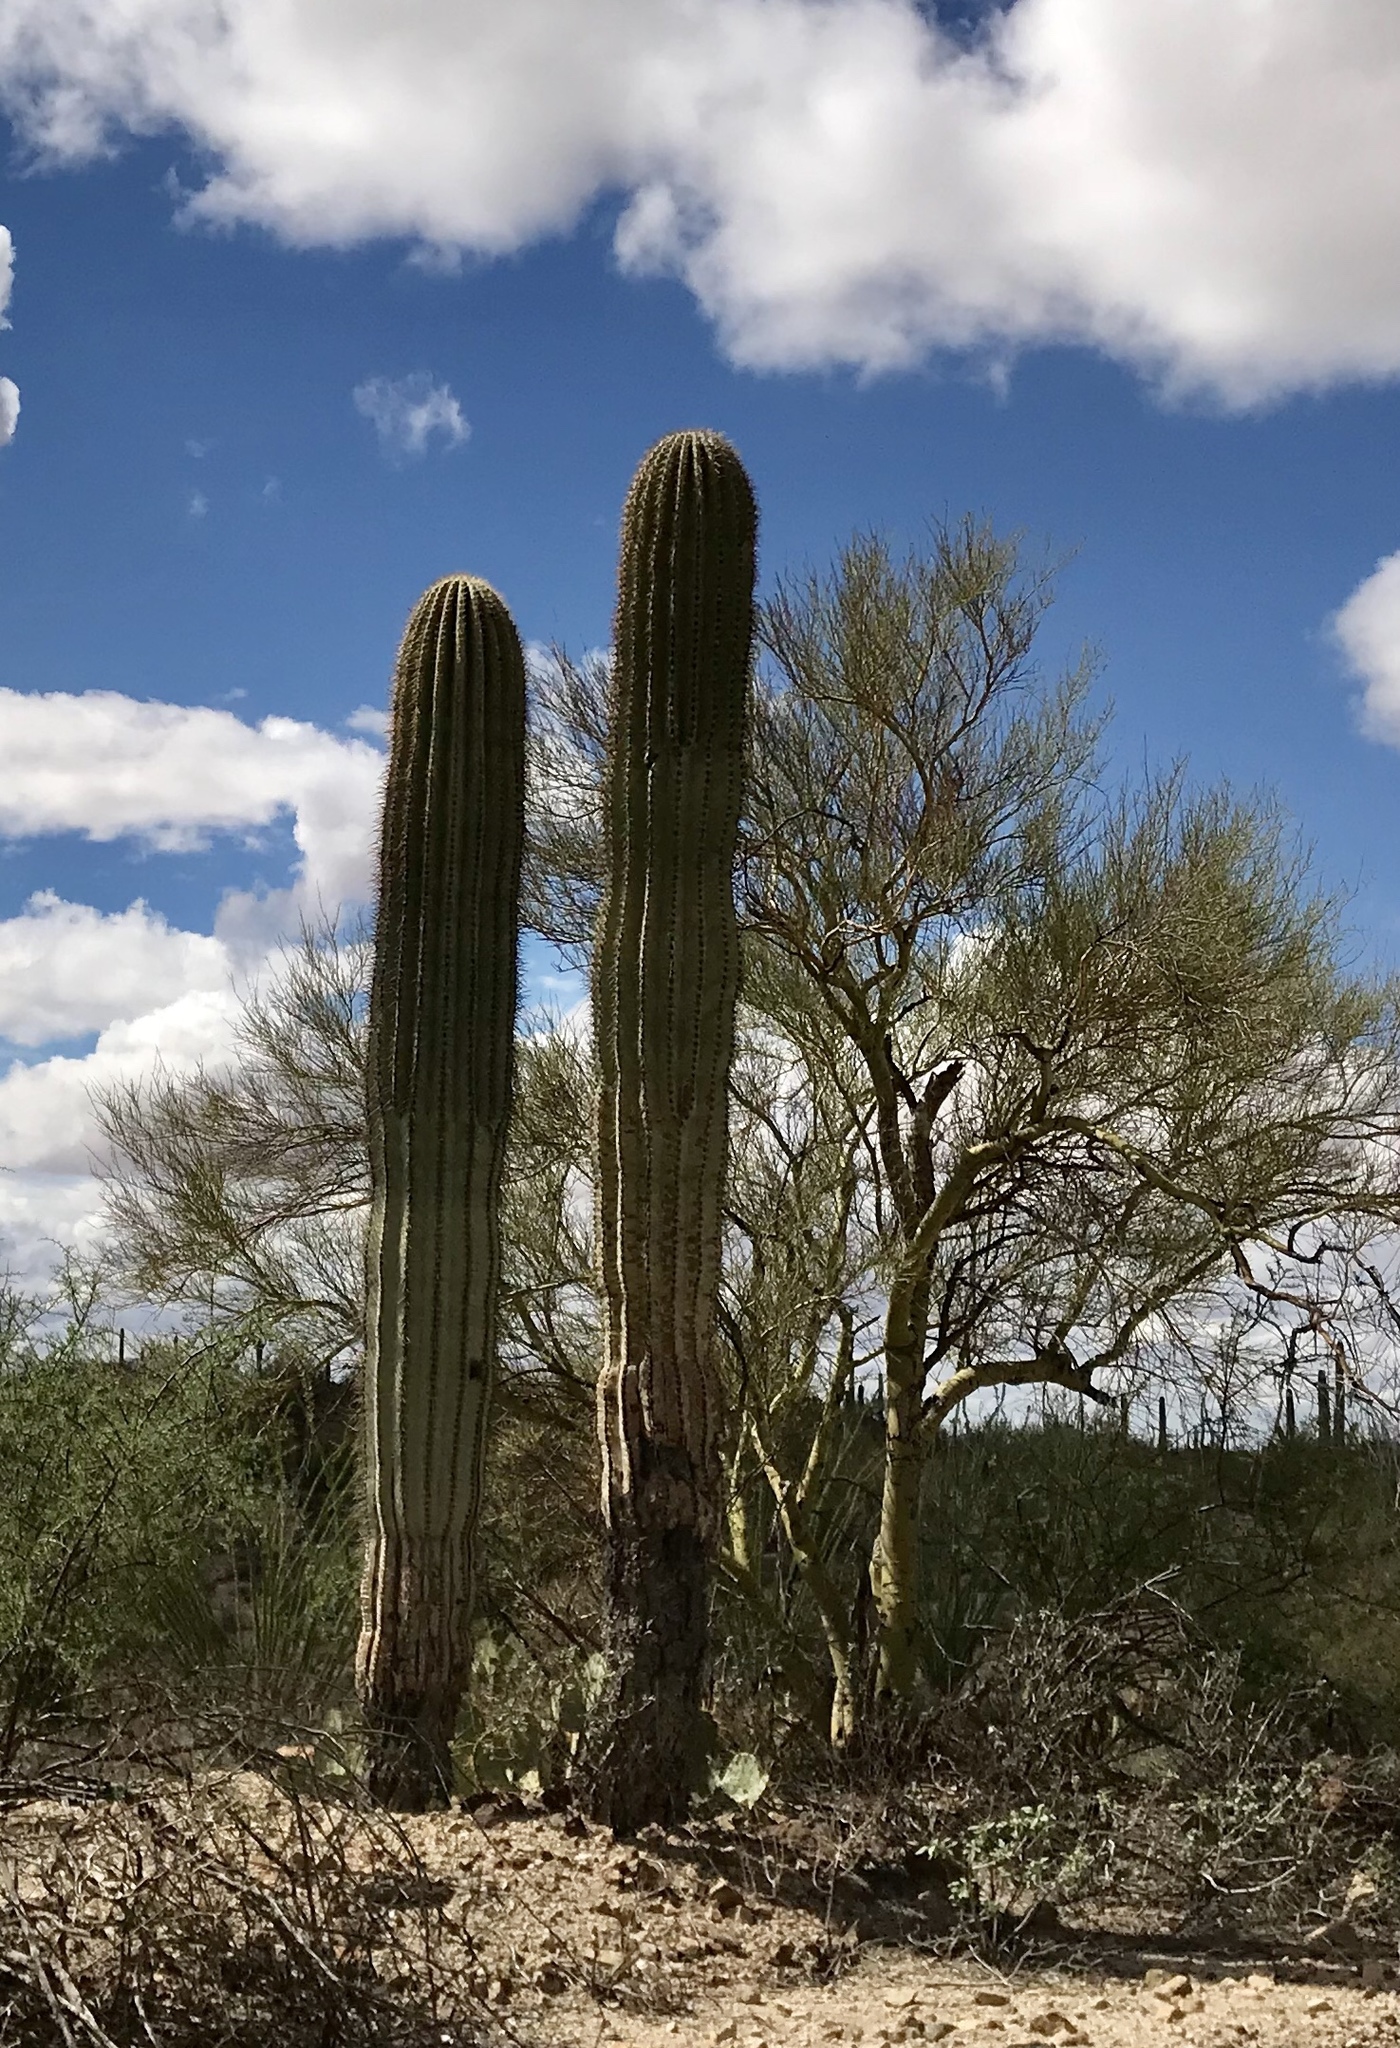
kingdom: Plantae
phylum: Tracheophyta
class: Magnoliopsida
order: Caryophyllales
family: Cactaceae
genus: Carnegiea
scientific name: Carnegiea gigantea
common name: Saguaro
